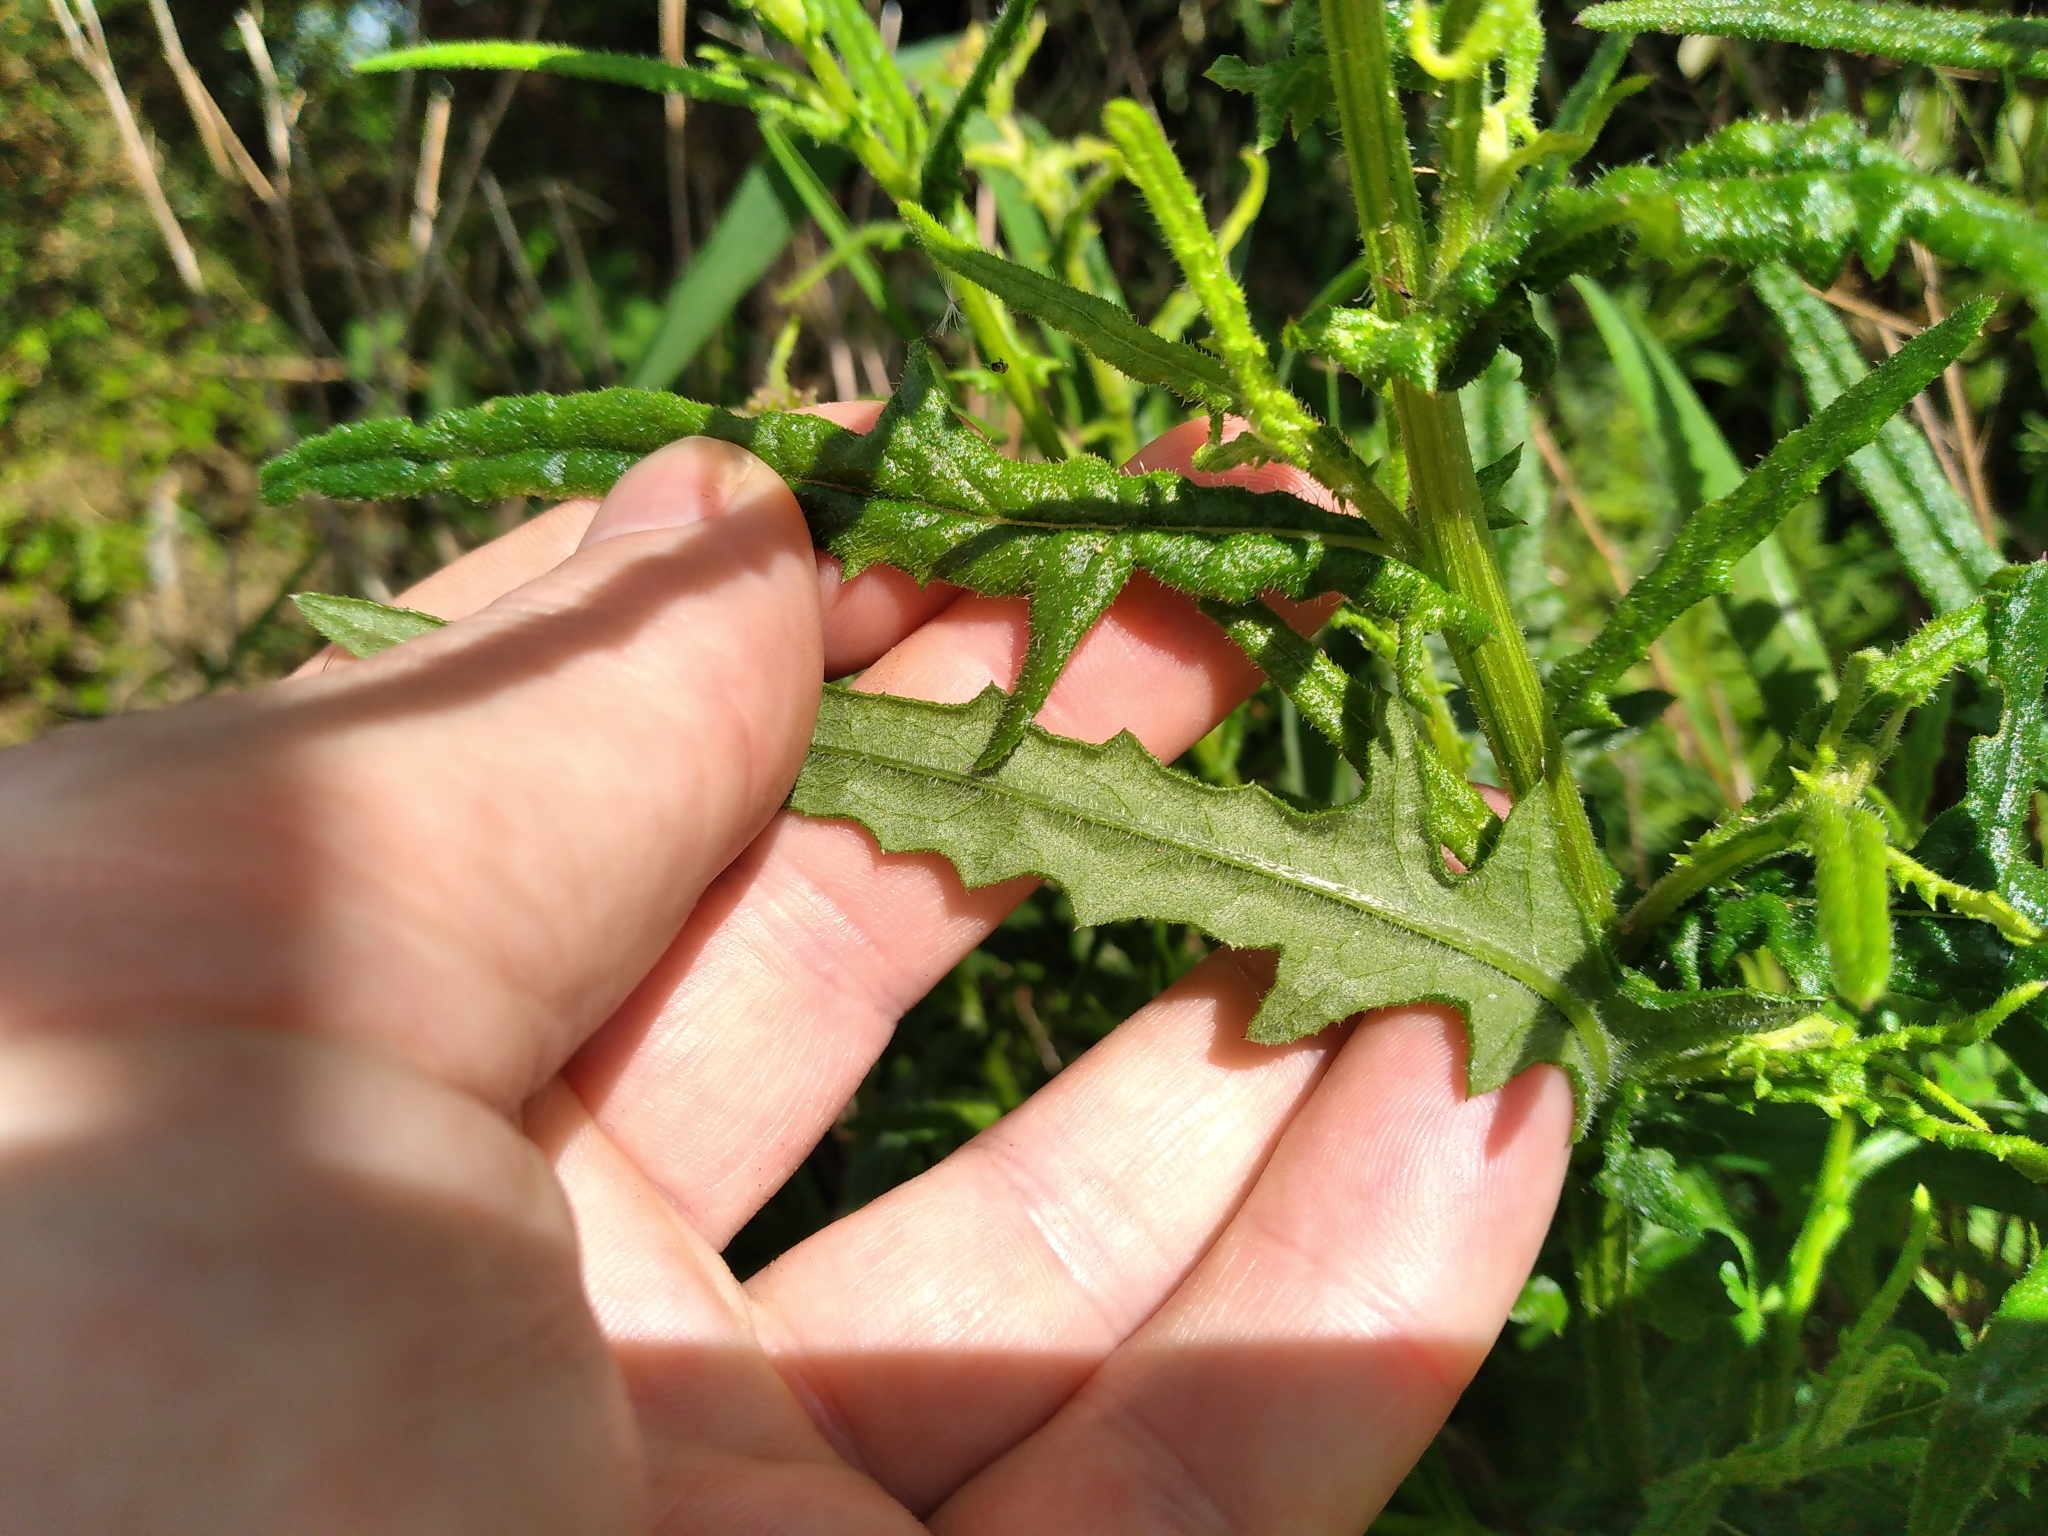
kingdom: Plantae
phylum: Tracheophyta
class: Magnoliopsida
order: Asterales
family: Asteraceae
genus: Senecio
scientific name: Senecio hispidulus
